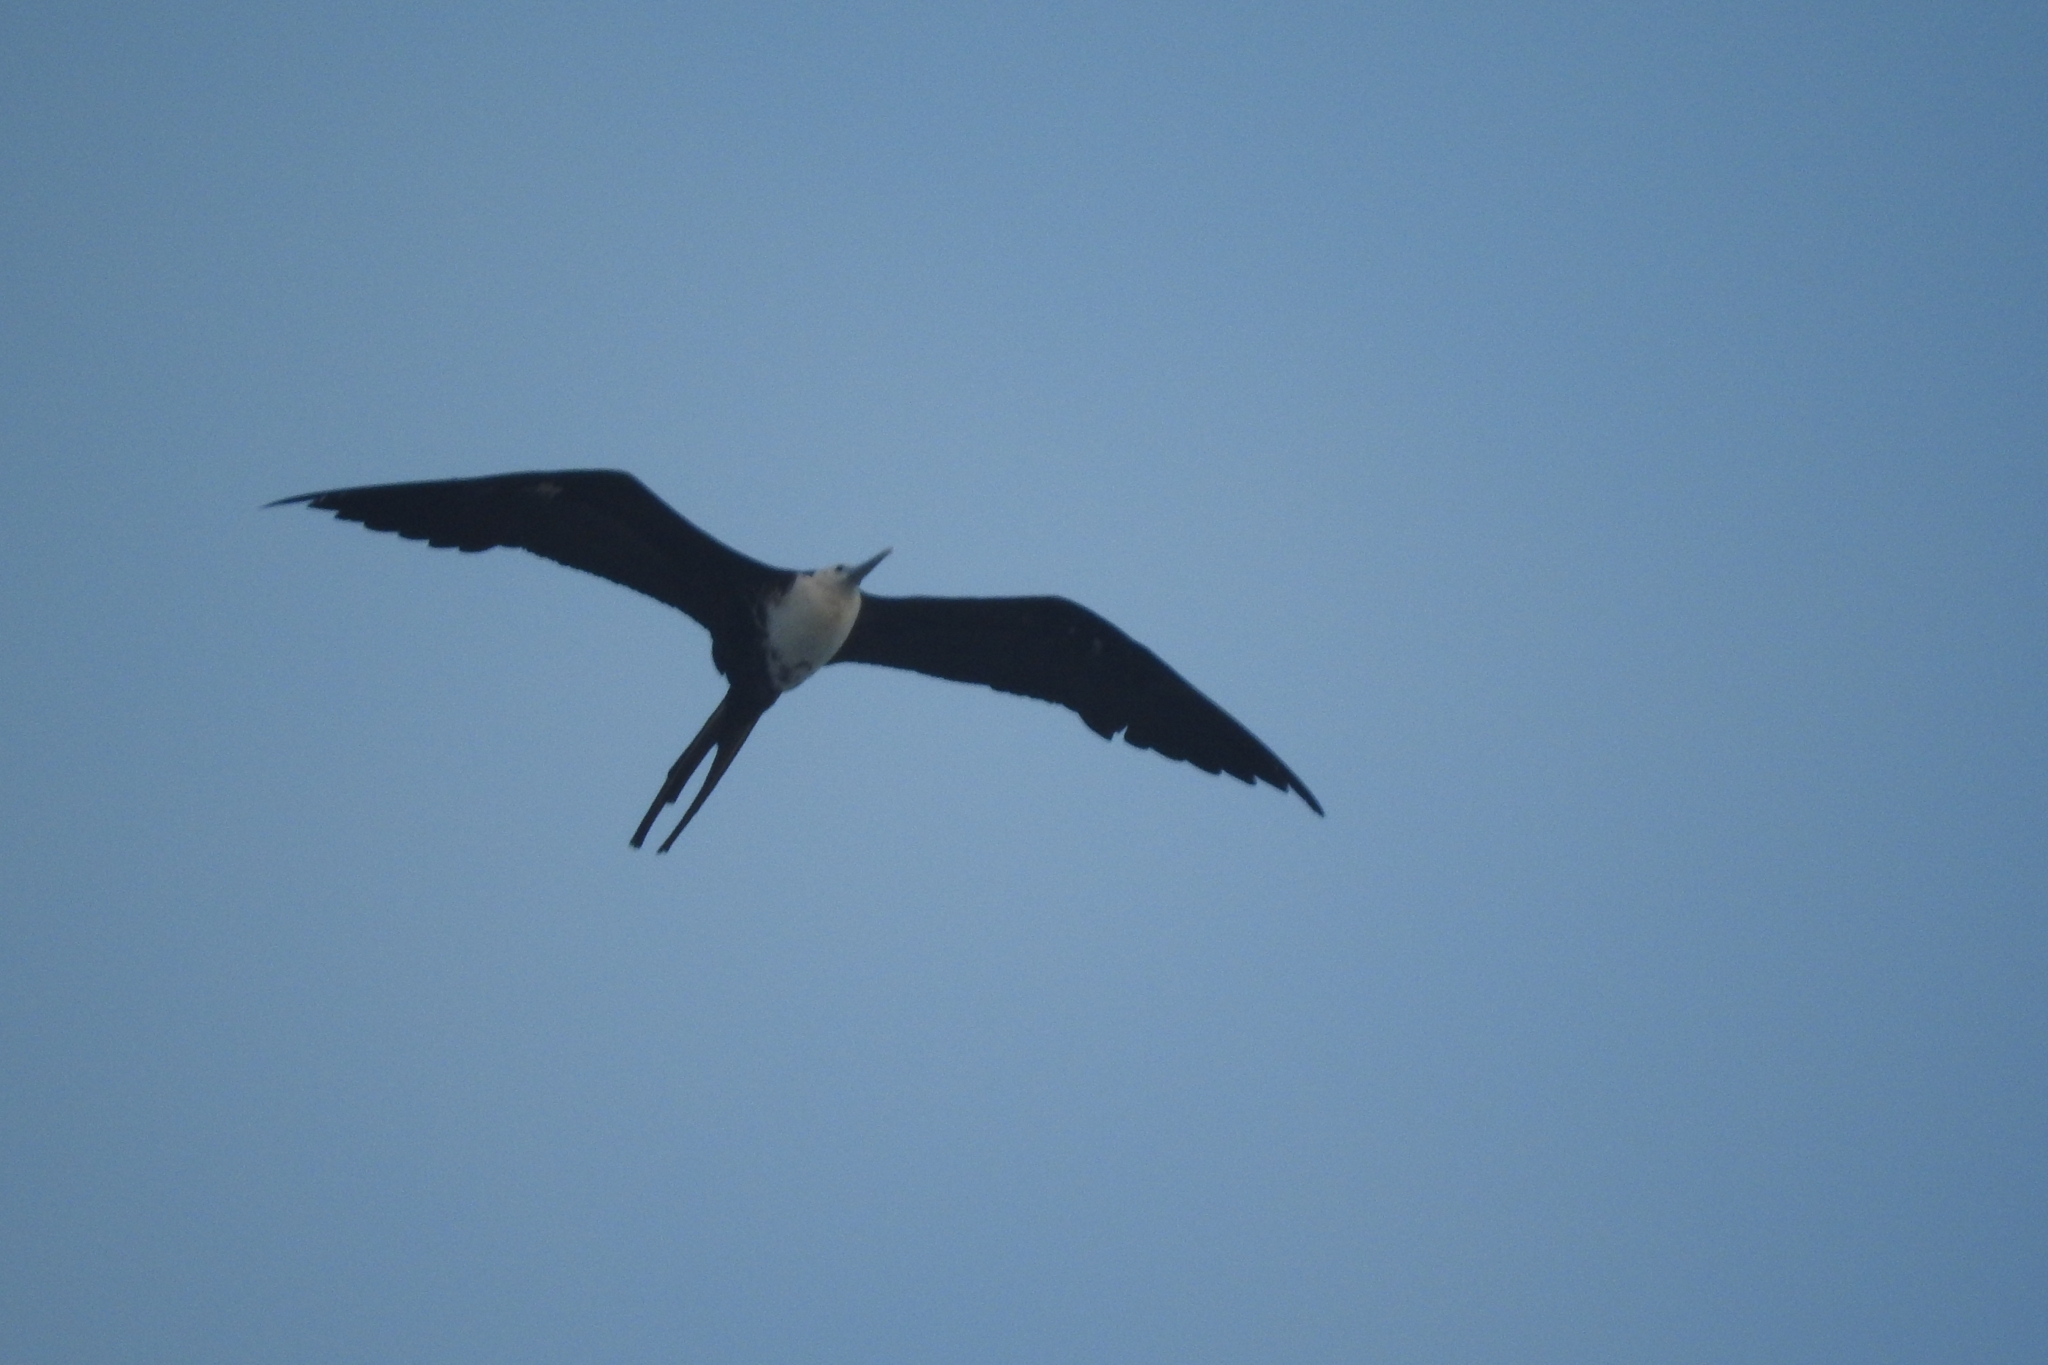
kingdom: Animalia
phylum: Chordata
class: Aves
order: Suliformes
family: Fregatidae
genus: Fregata
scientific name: Fregata magnificens
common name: Magnificent frigatebird
